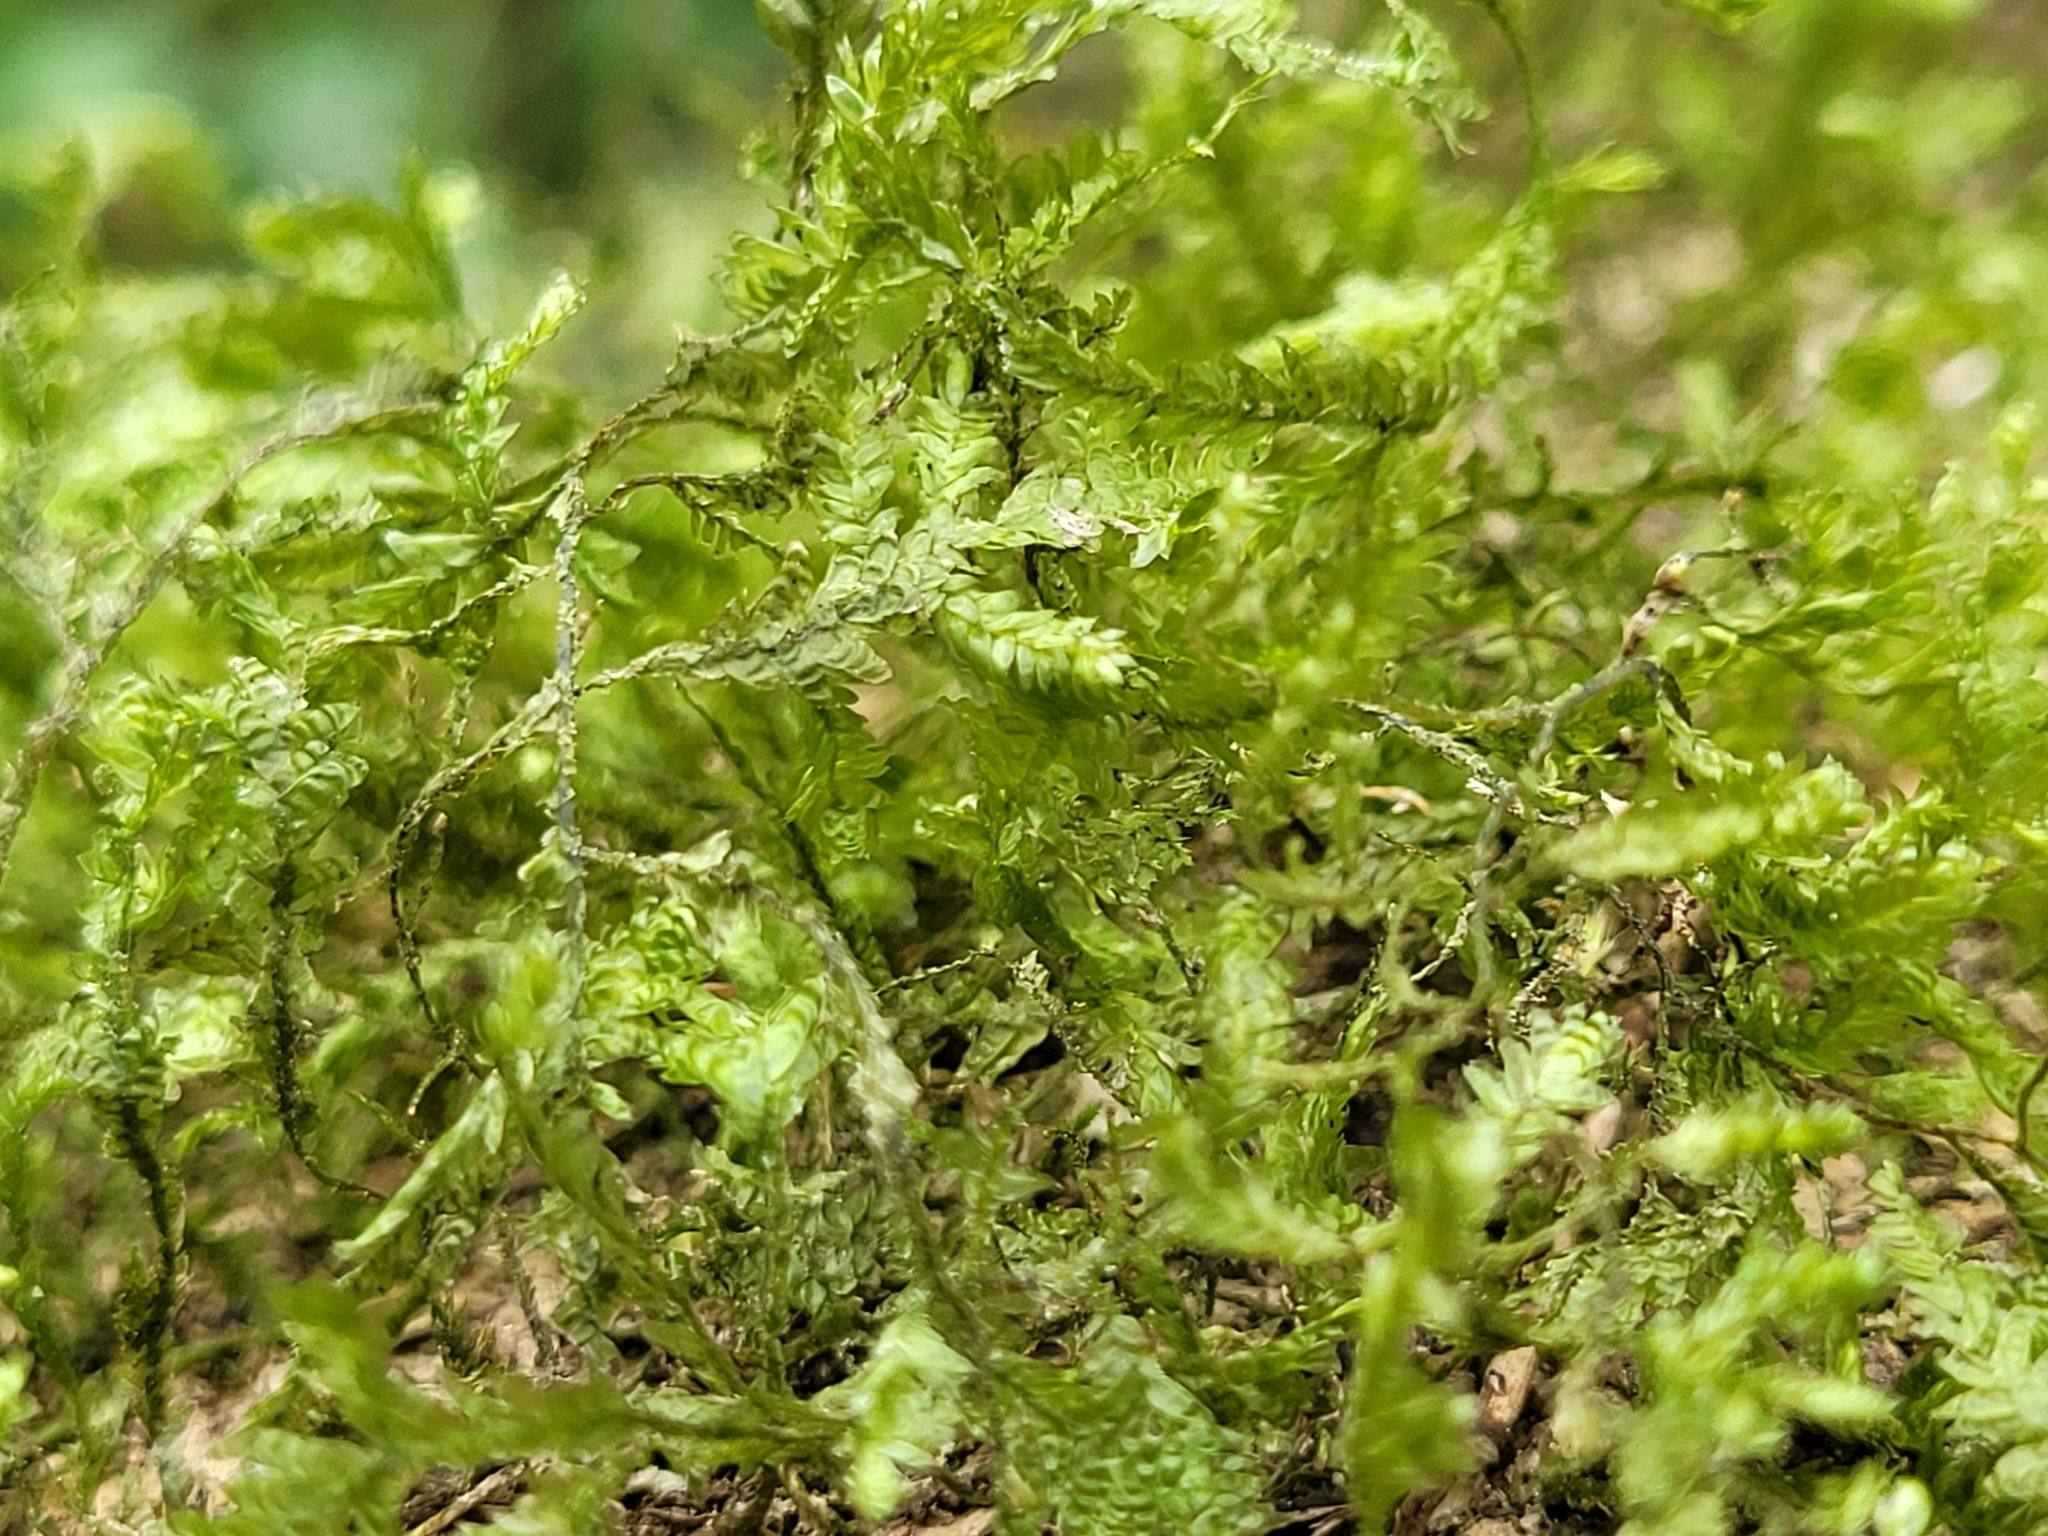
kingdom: Plantae
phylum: Bryophyta
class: Bryopsida
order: Hypnales
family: Neckeraceae
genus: Alleniella
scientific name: Alleniella complanata
